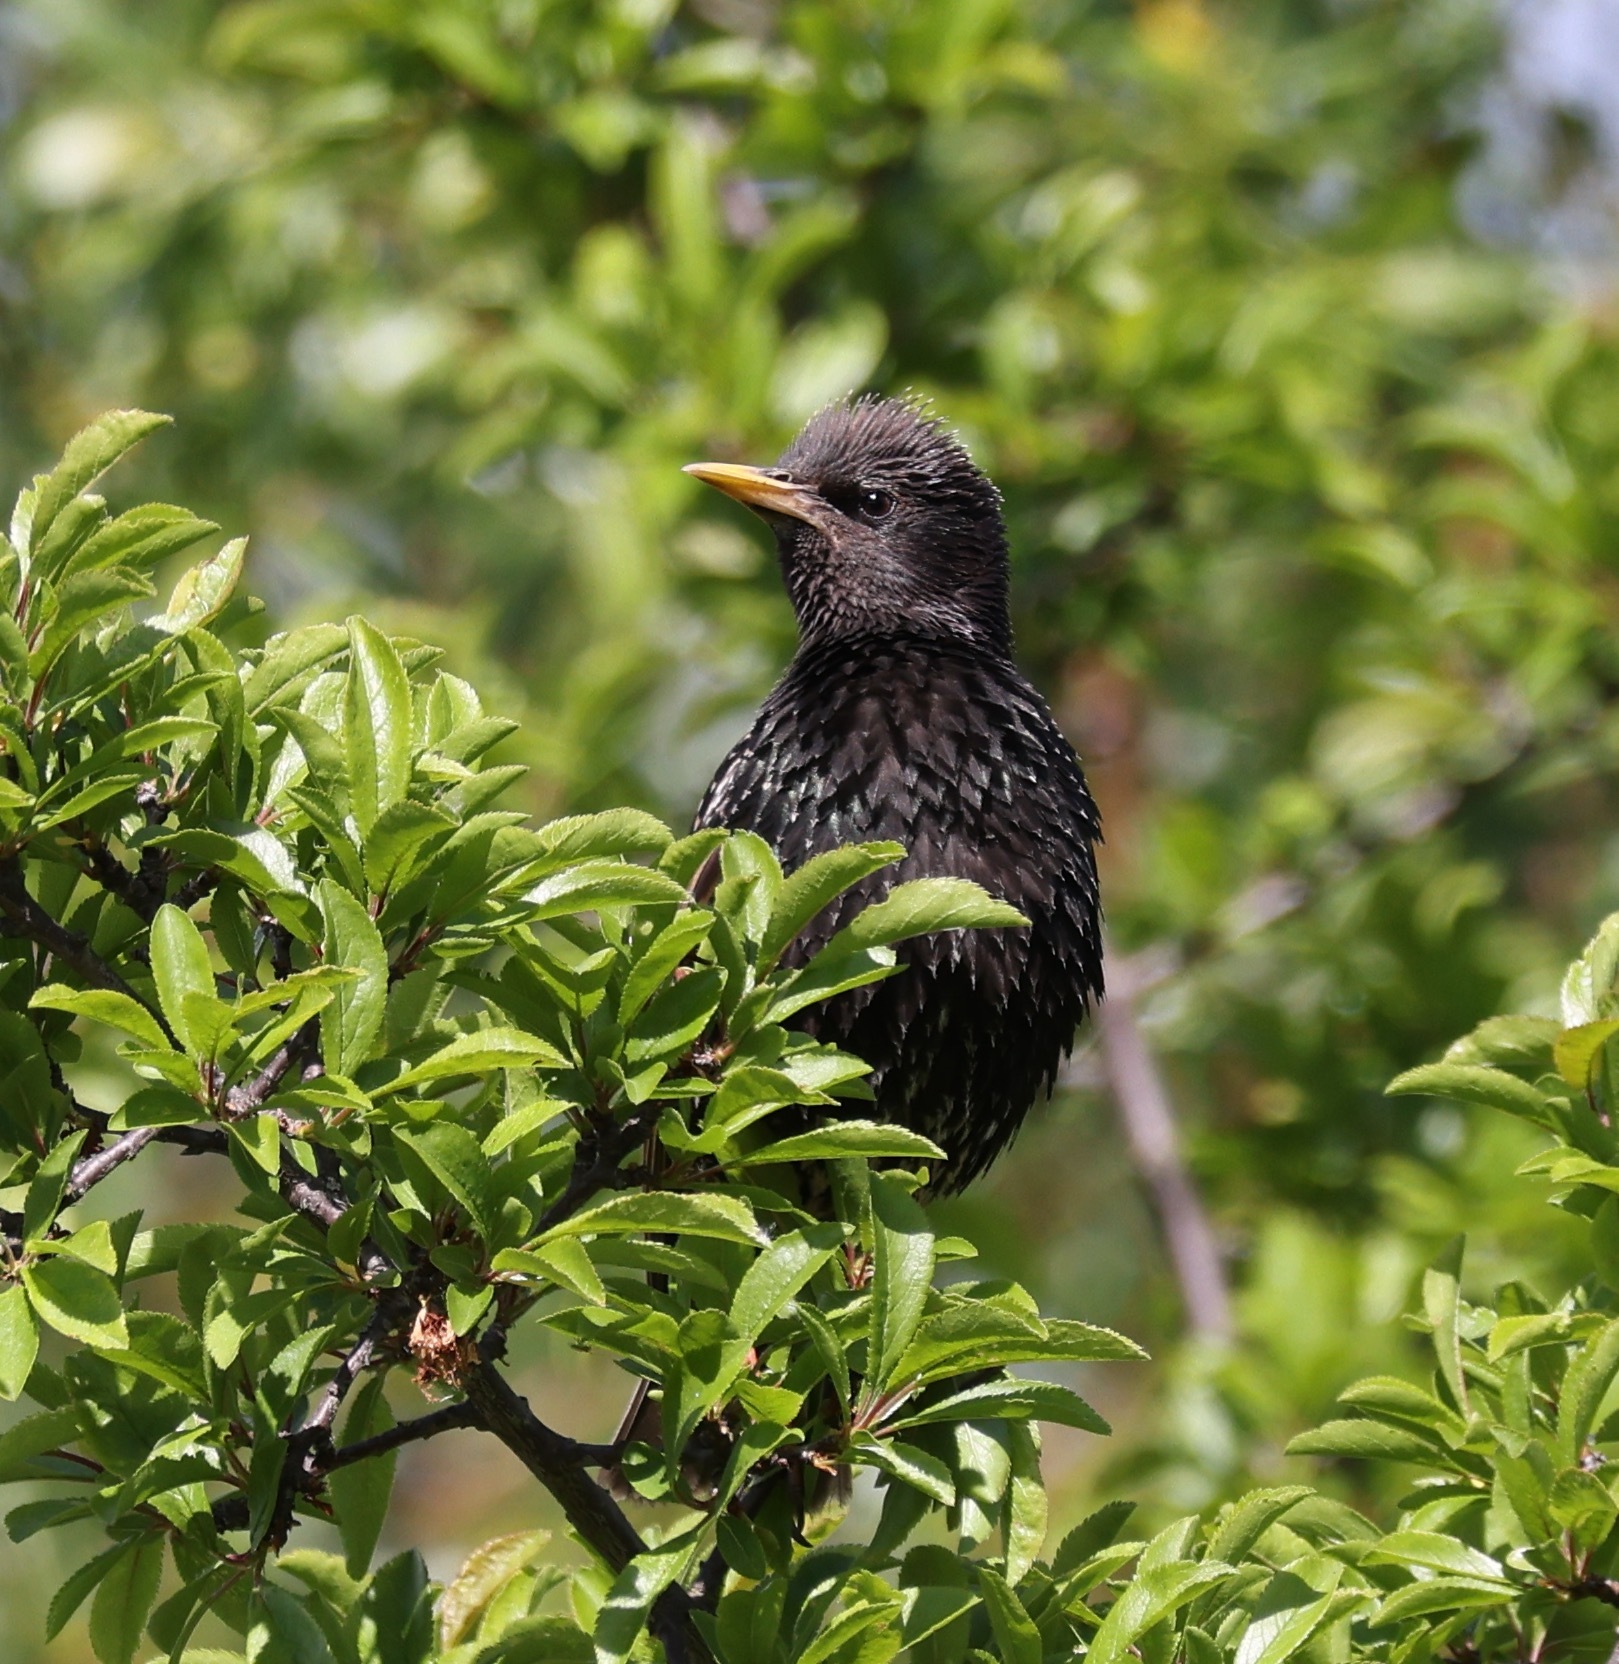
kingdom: Animalia
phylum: Chordata
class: Aves
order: Passeriformes
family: Sturnidae
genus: Sturnus
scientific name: Sturnus vulgaris
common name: Common starling
